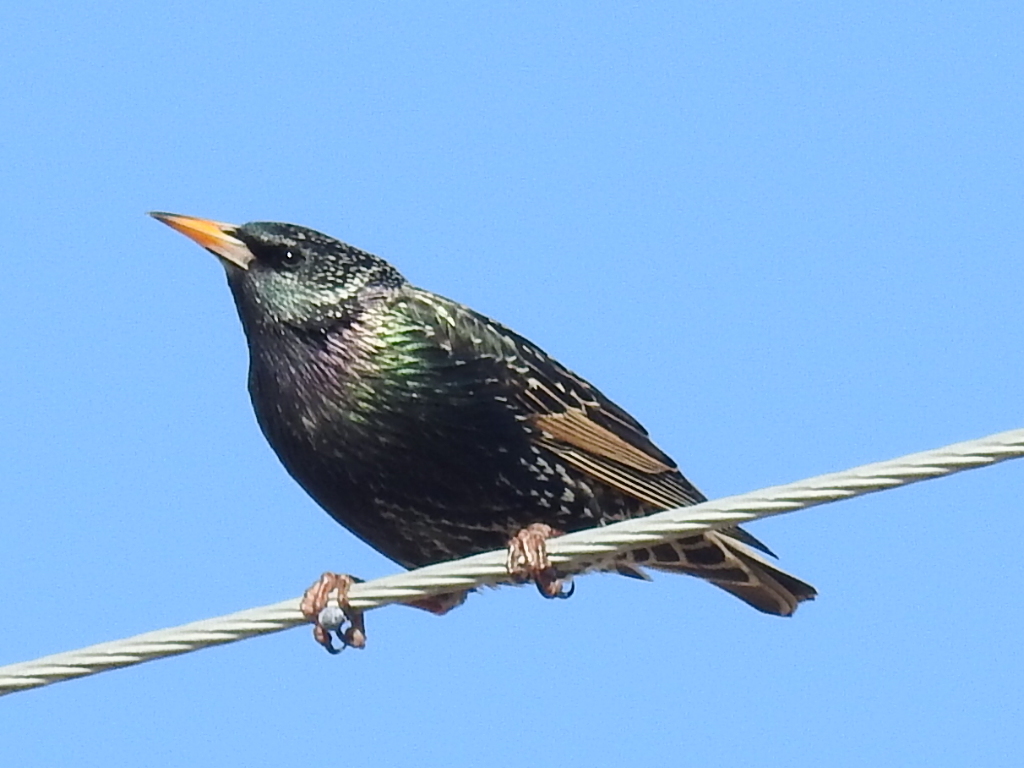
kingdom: Animalia
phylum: Chordata
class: Aves
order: Passeriformes
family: Sturnidae
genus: Sturnus
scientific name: Sturnus vulgaris
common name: Common starling
